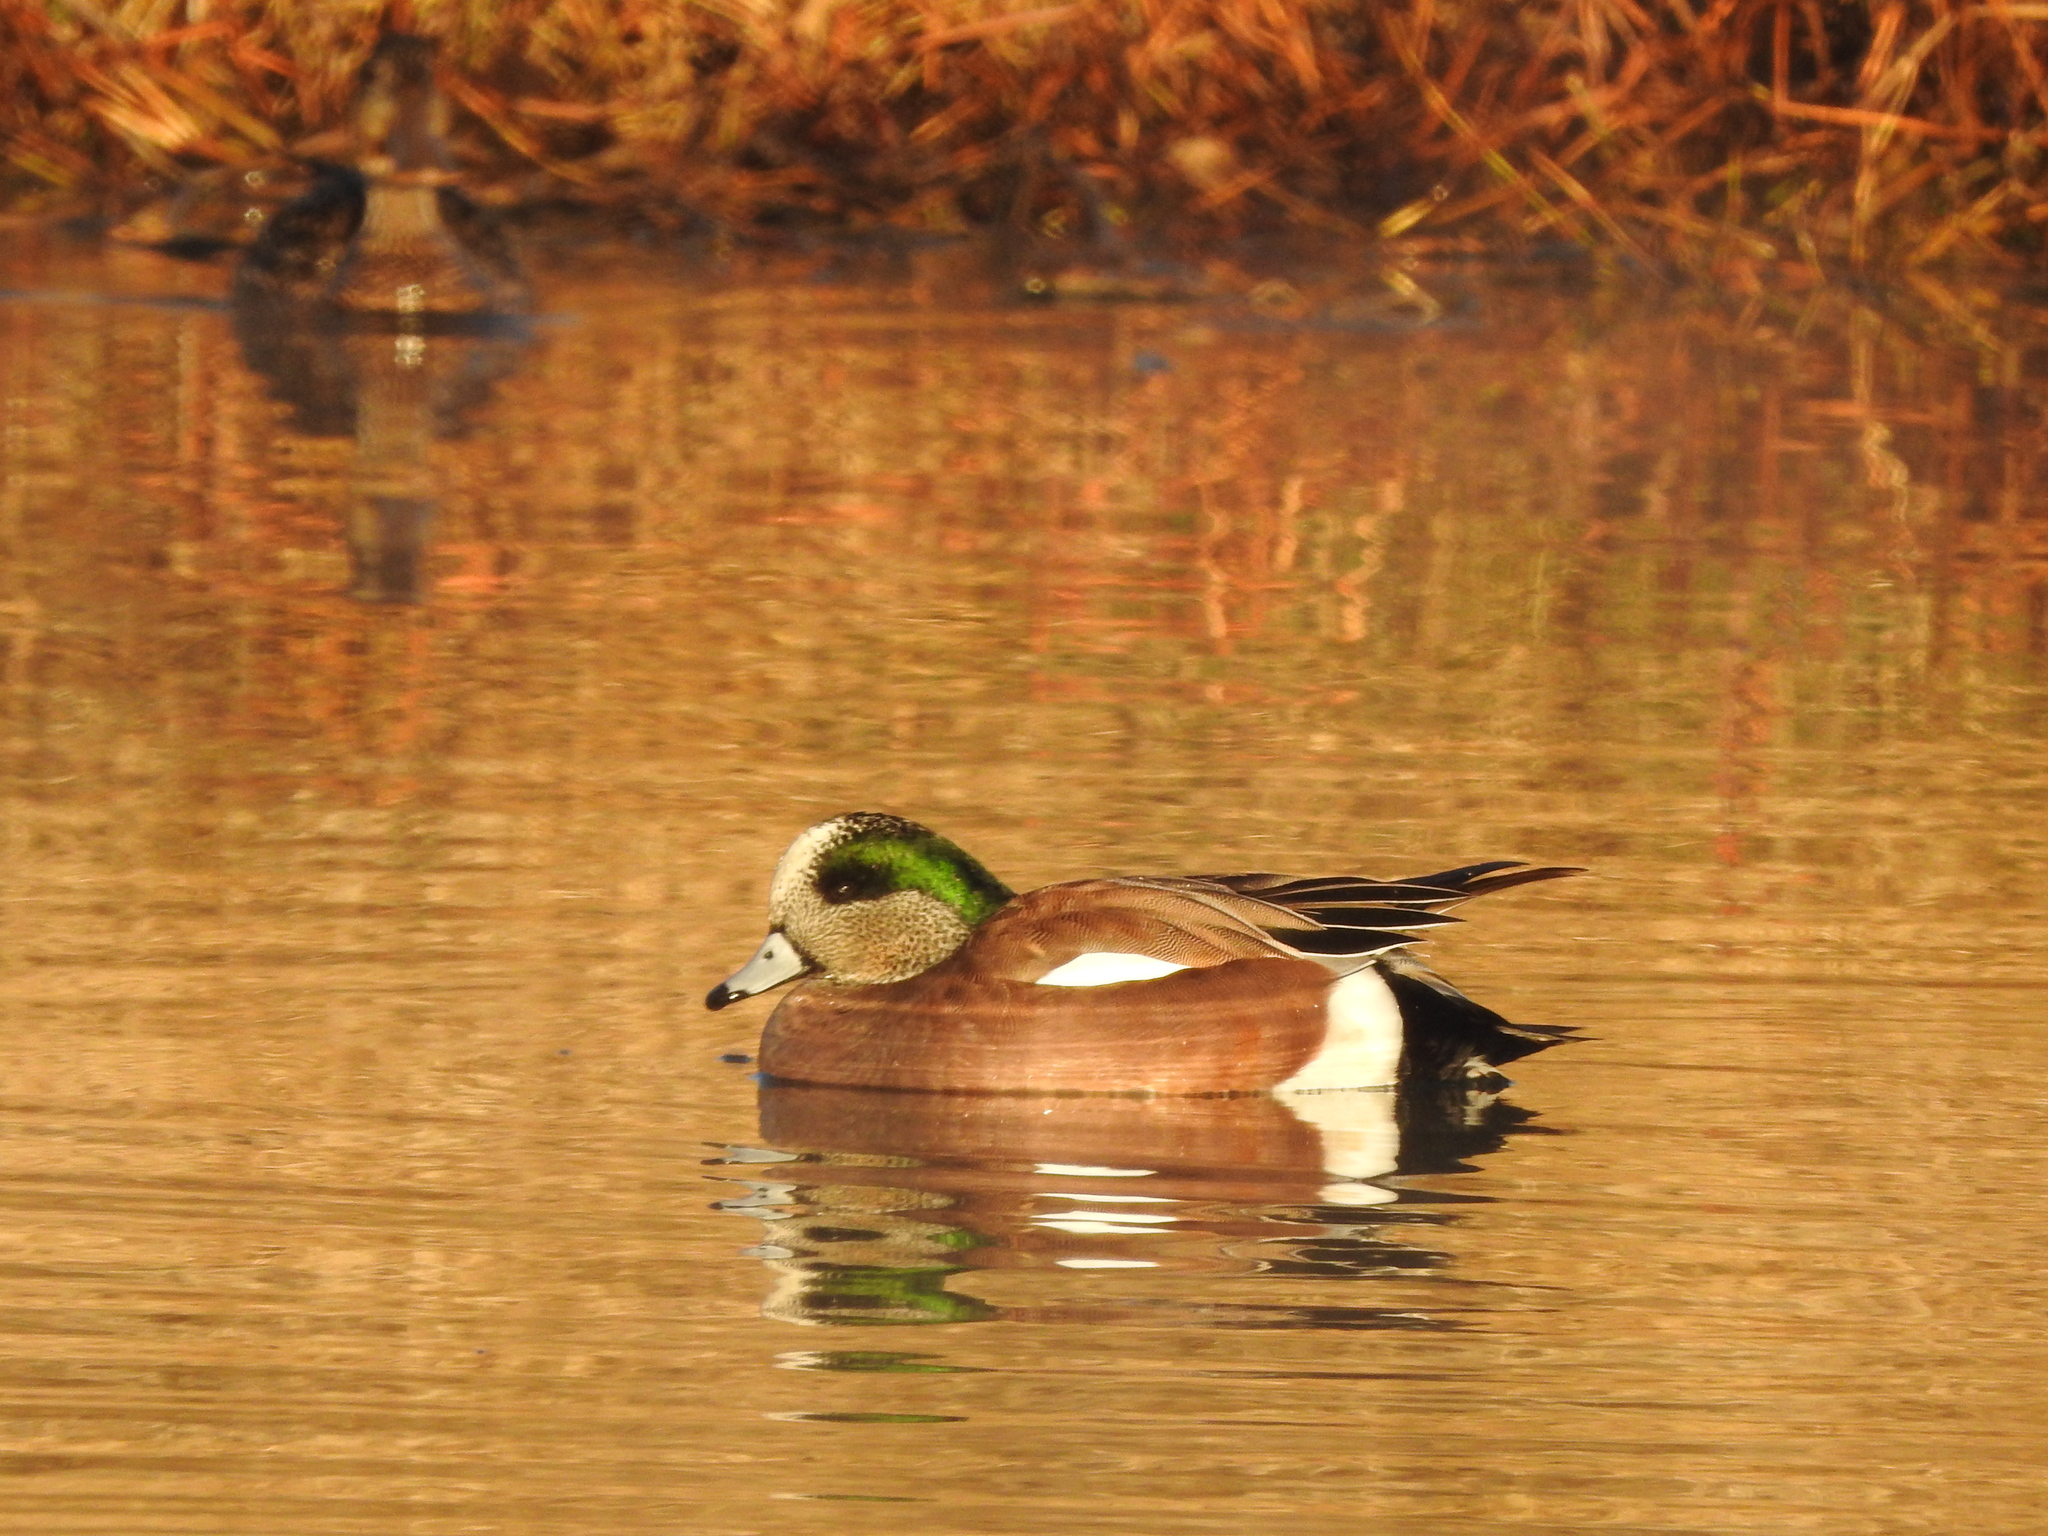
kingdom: Animalia
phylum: Chordata
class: Aves
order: Anseriformes
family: Anatidae
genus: Mareca
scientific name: Mareca americana
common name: American wigeon
